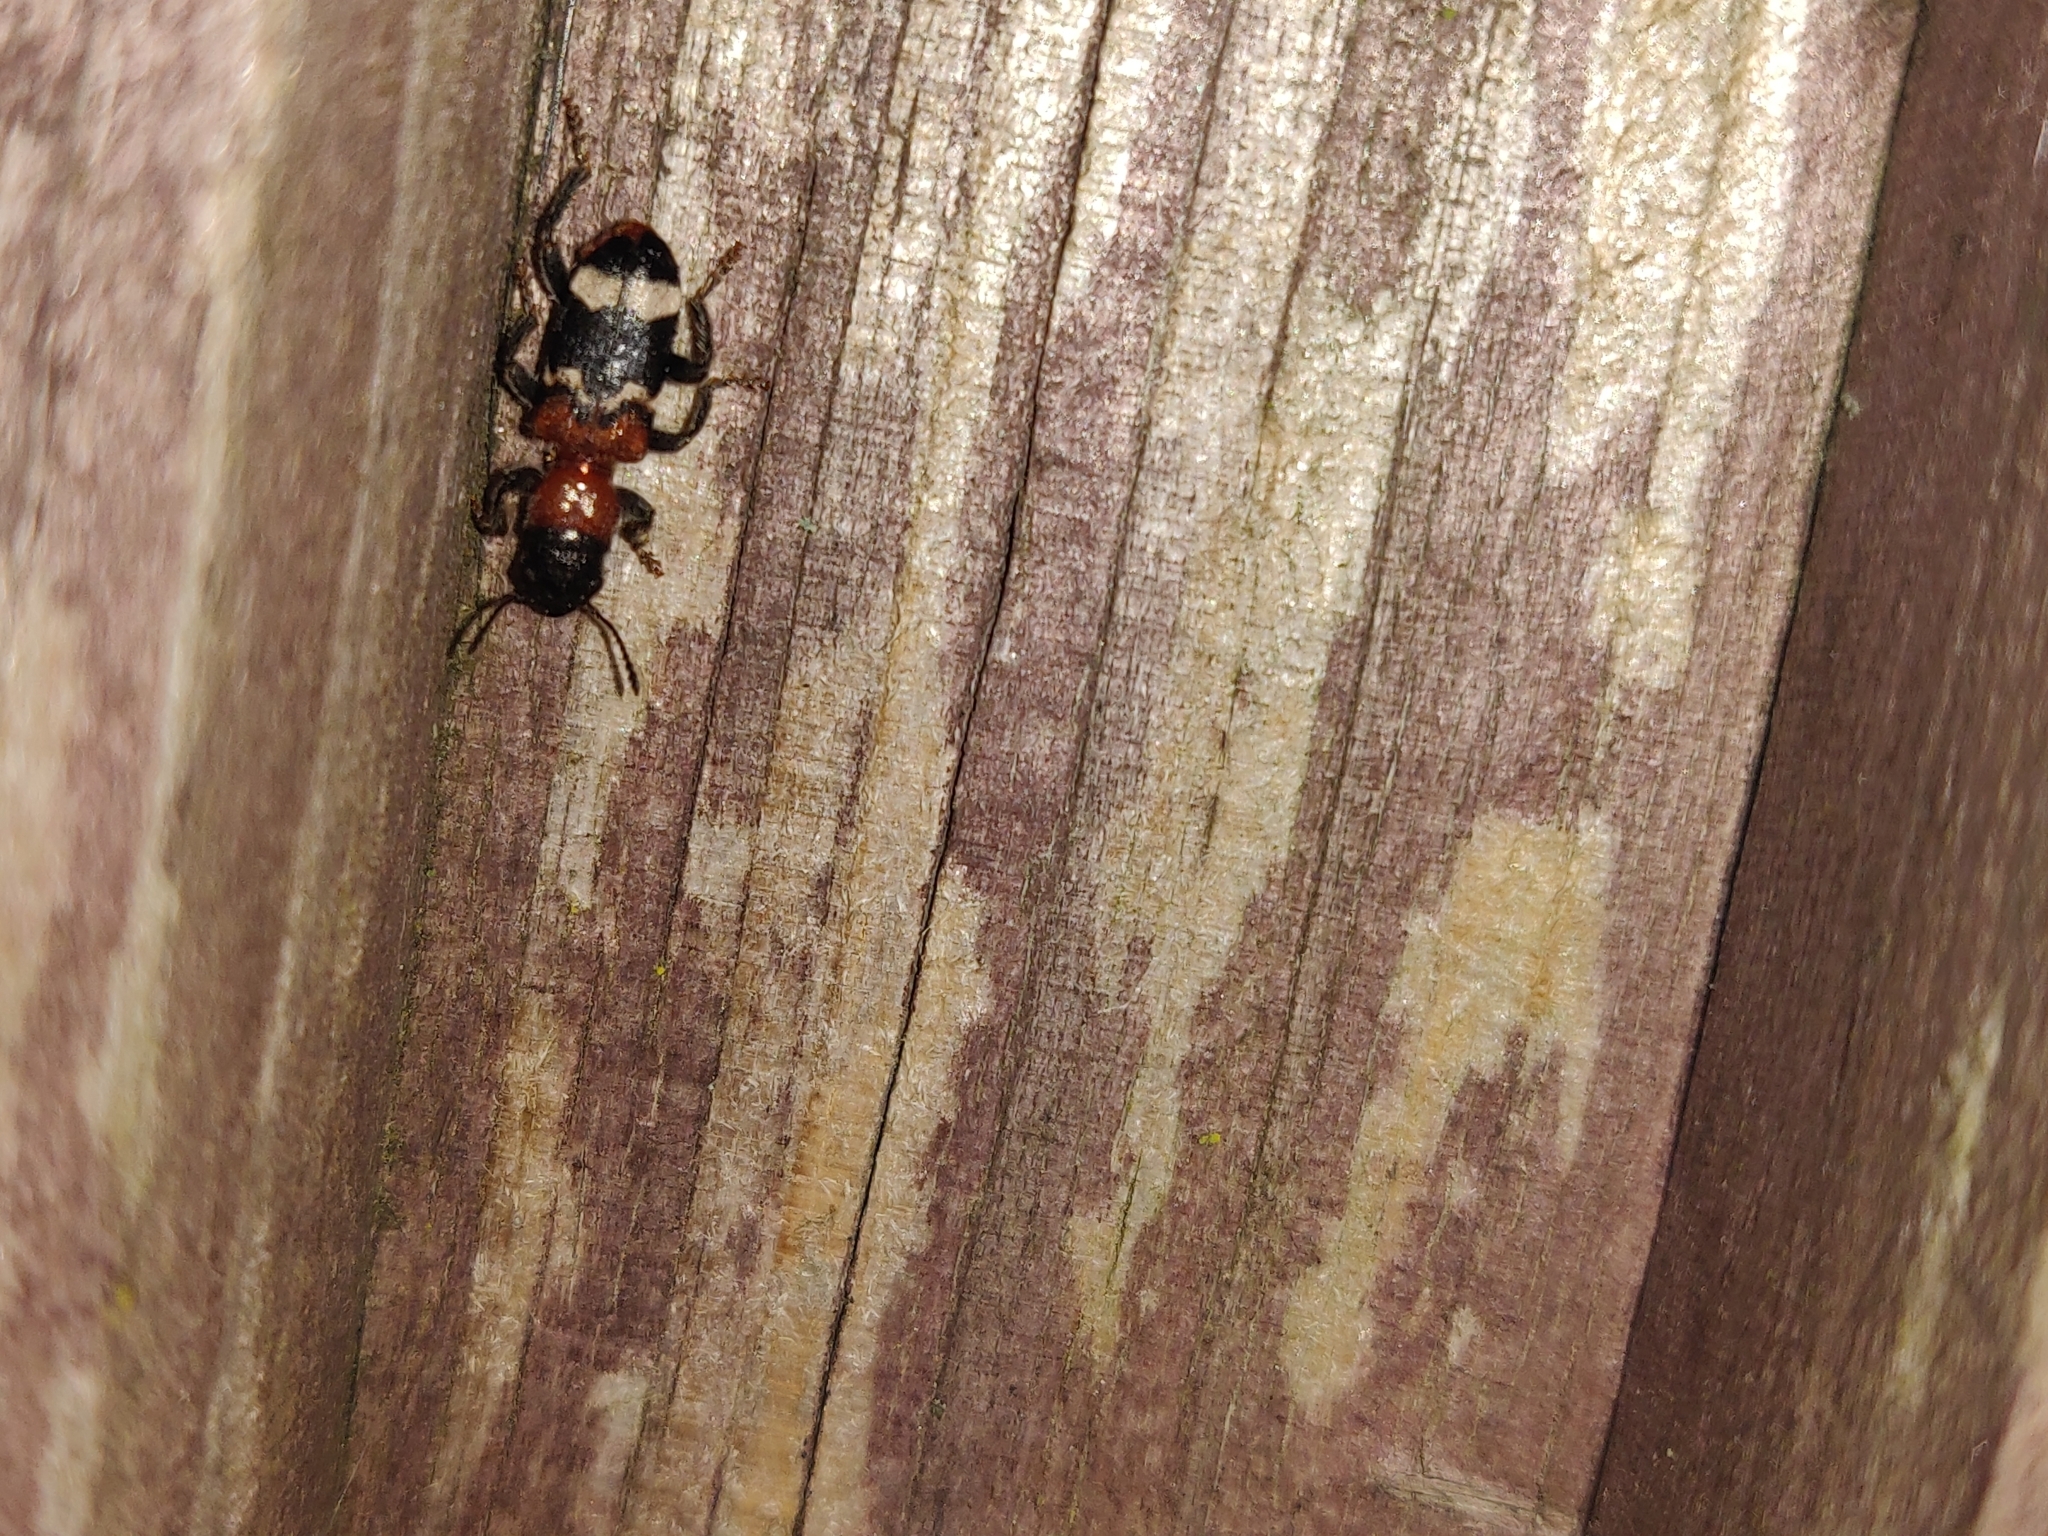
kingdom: Animalia
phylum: Arthropoda
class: Insecta
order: Coleoptera
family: Cleridae
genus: Thanasimus
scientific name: Thanasimus formicarius
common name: Ant beetle
